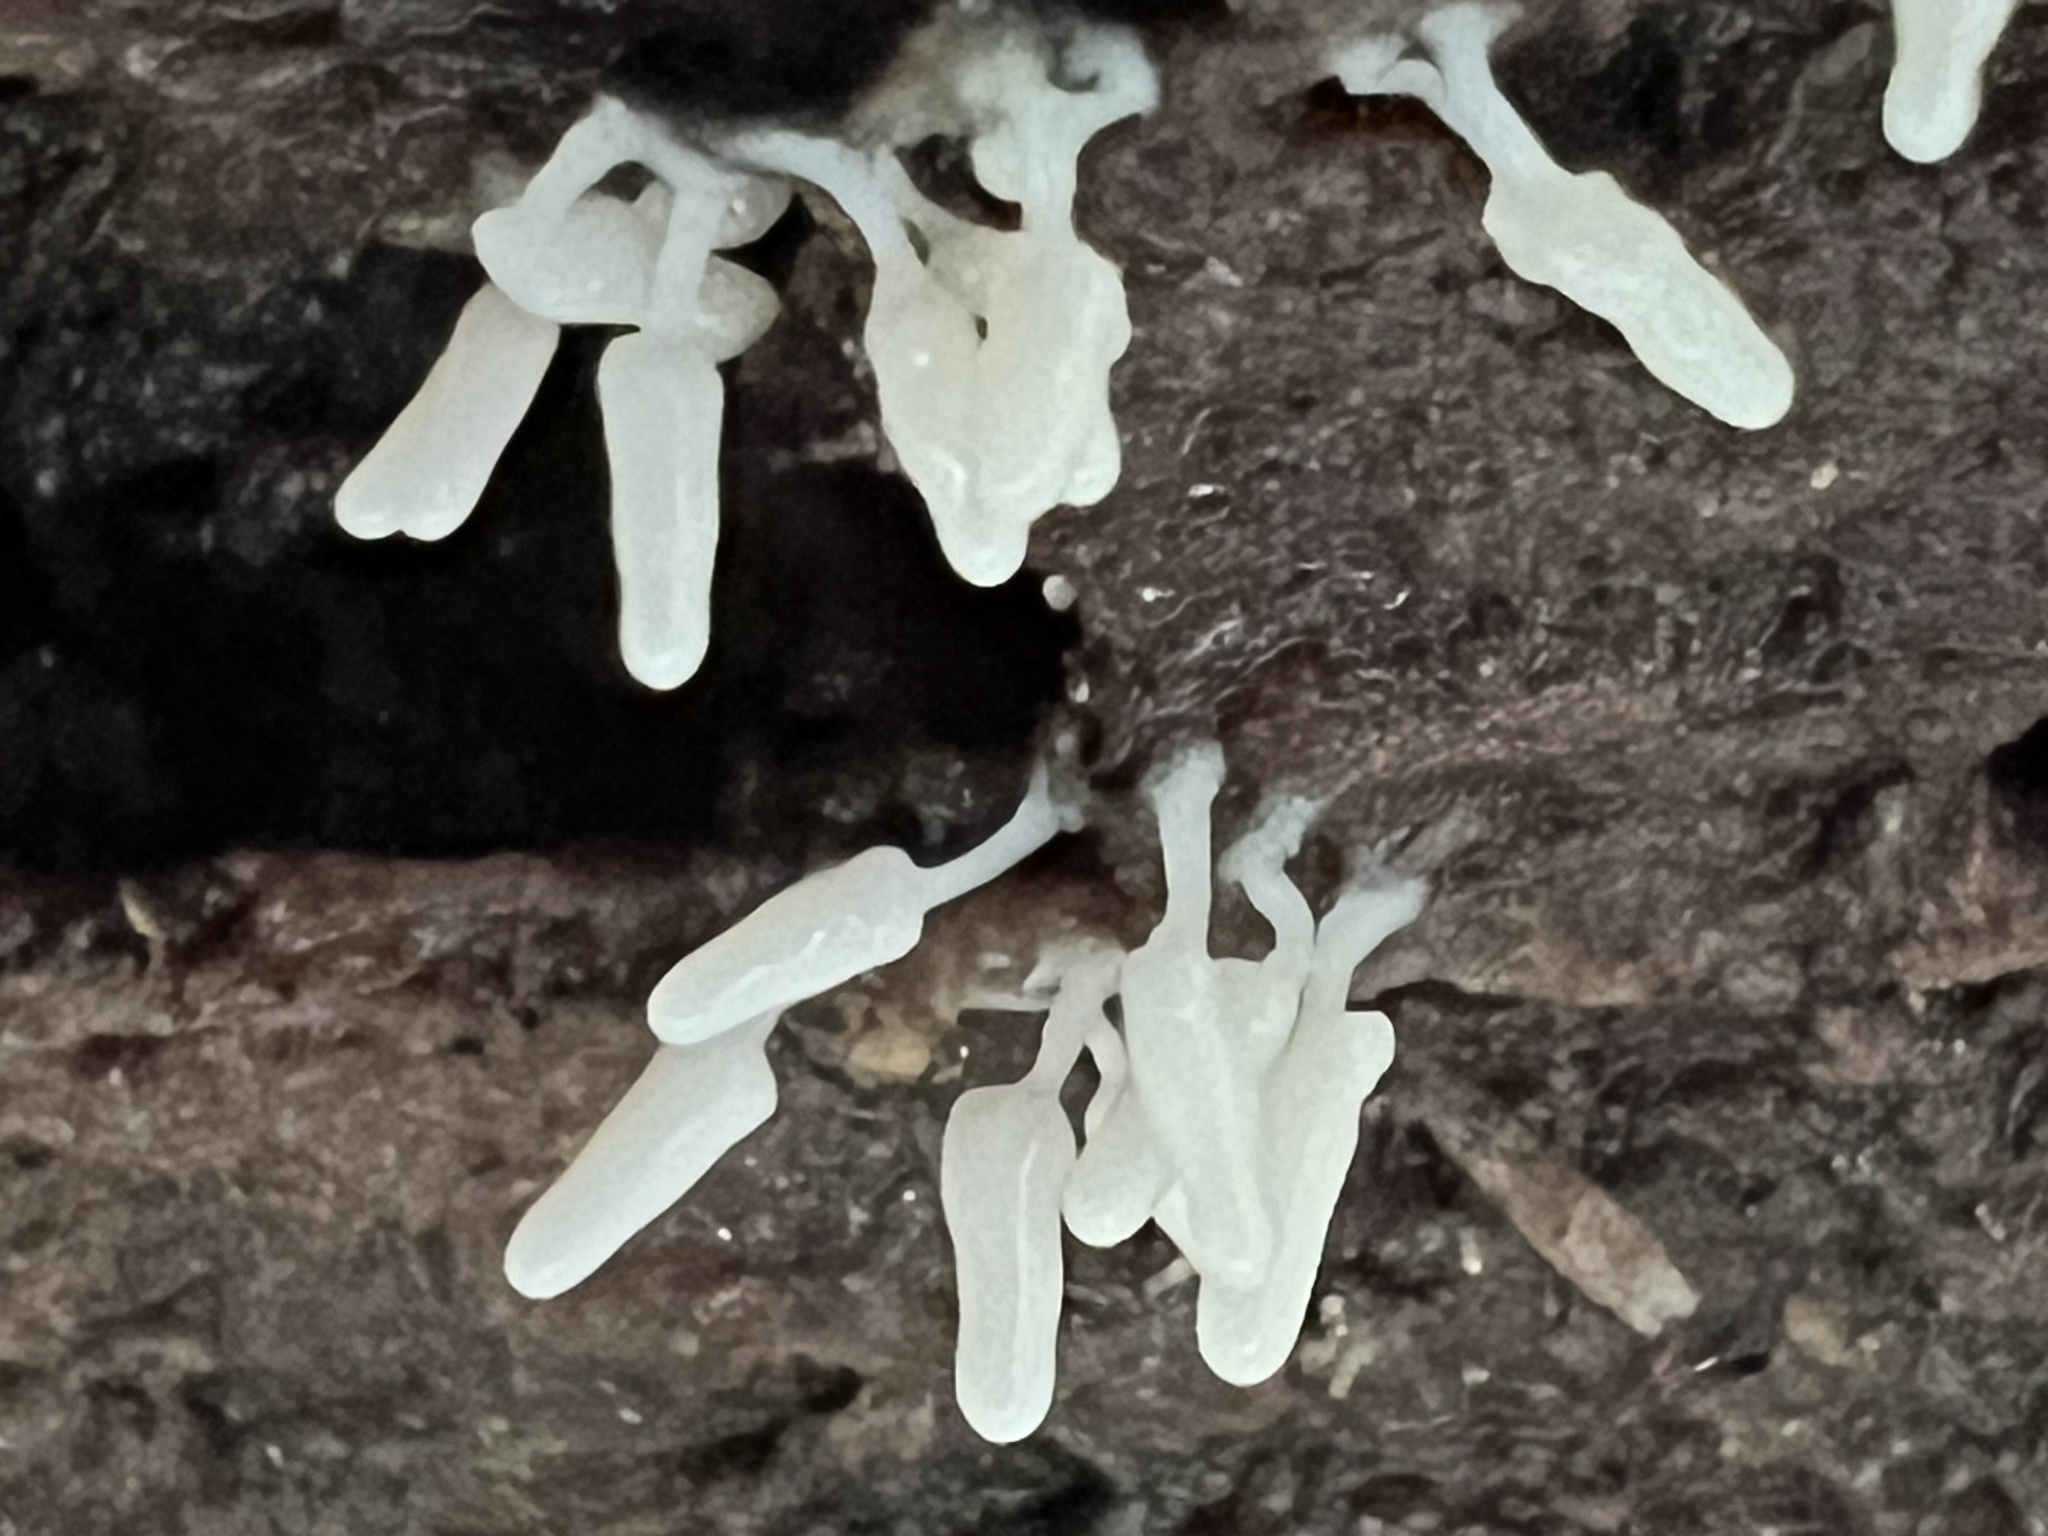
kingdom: Protozoa
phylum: Mycetozoa
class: Myxomycetes
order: Trichiales
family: Arcyriaceae
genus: Arcyria
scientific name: Arcyria cinerea
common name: White carnival candy slime mold
